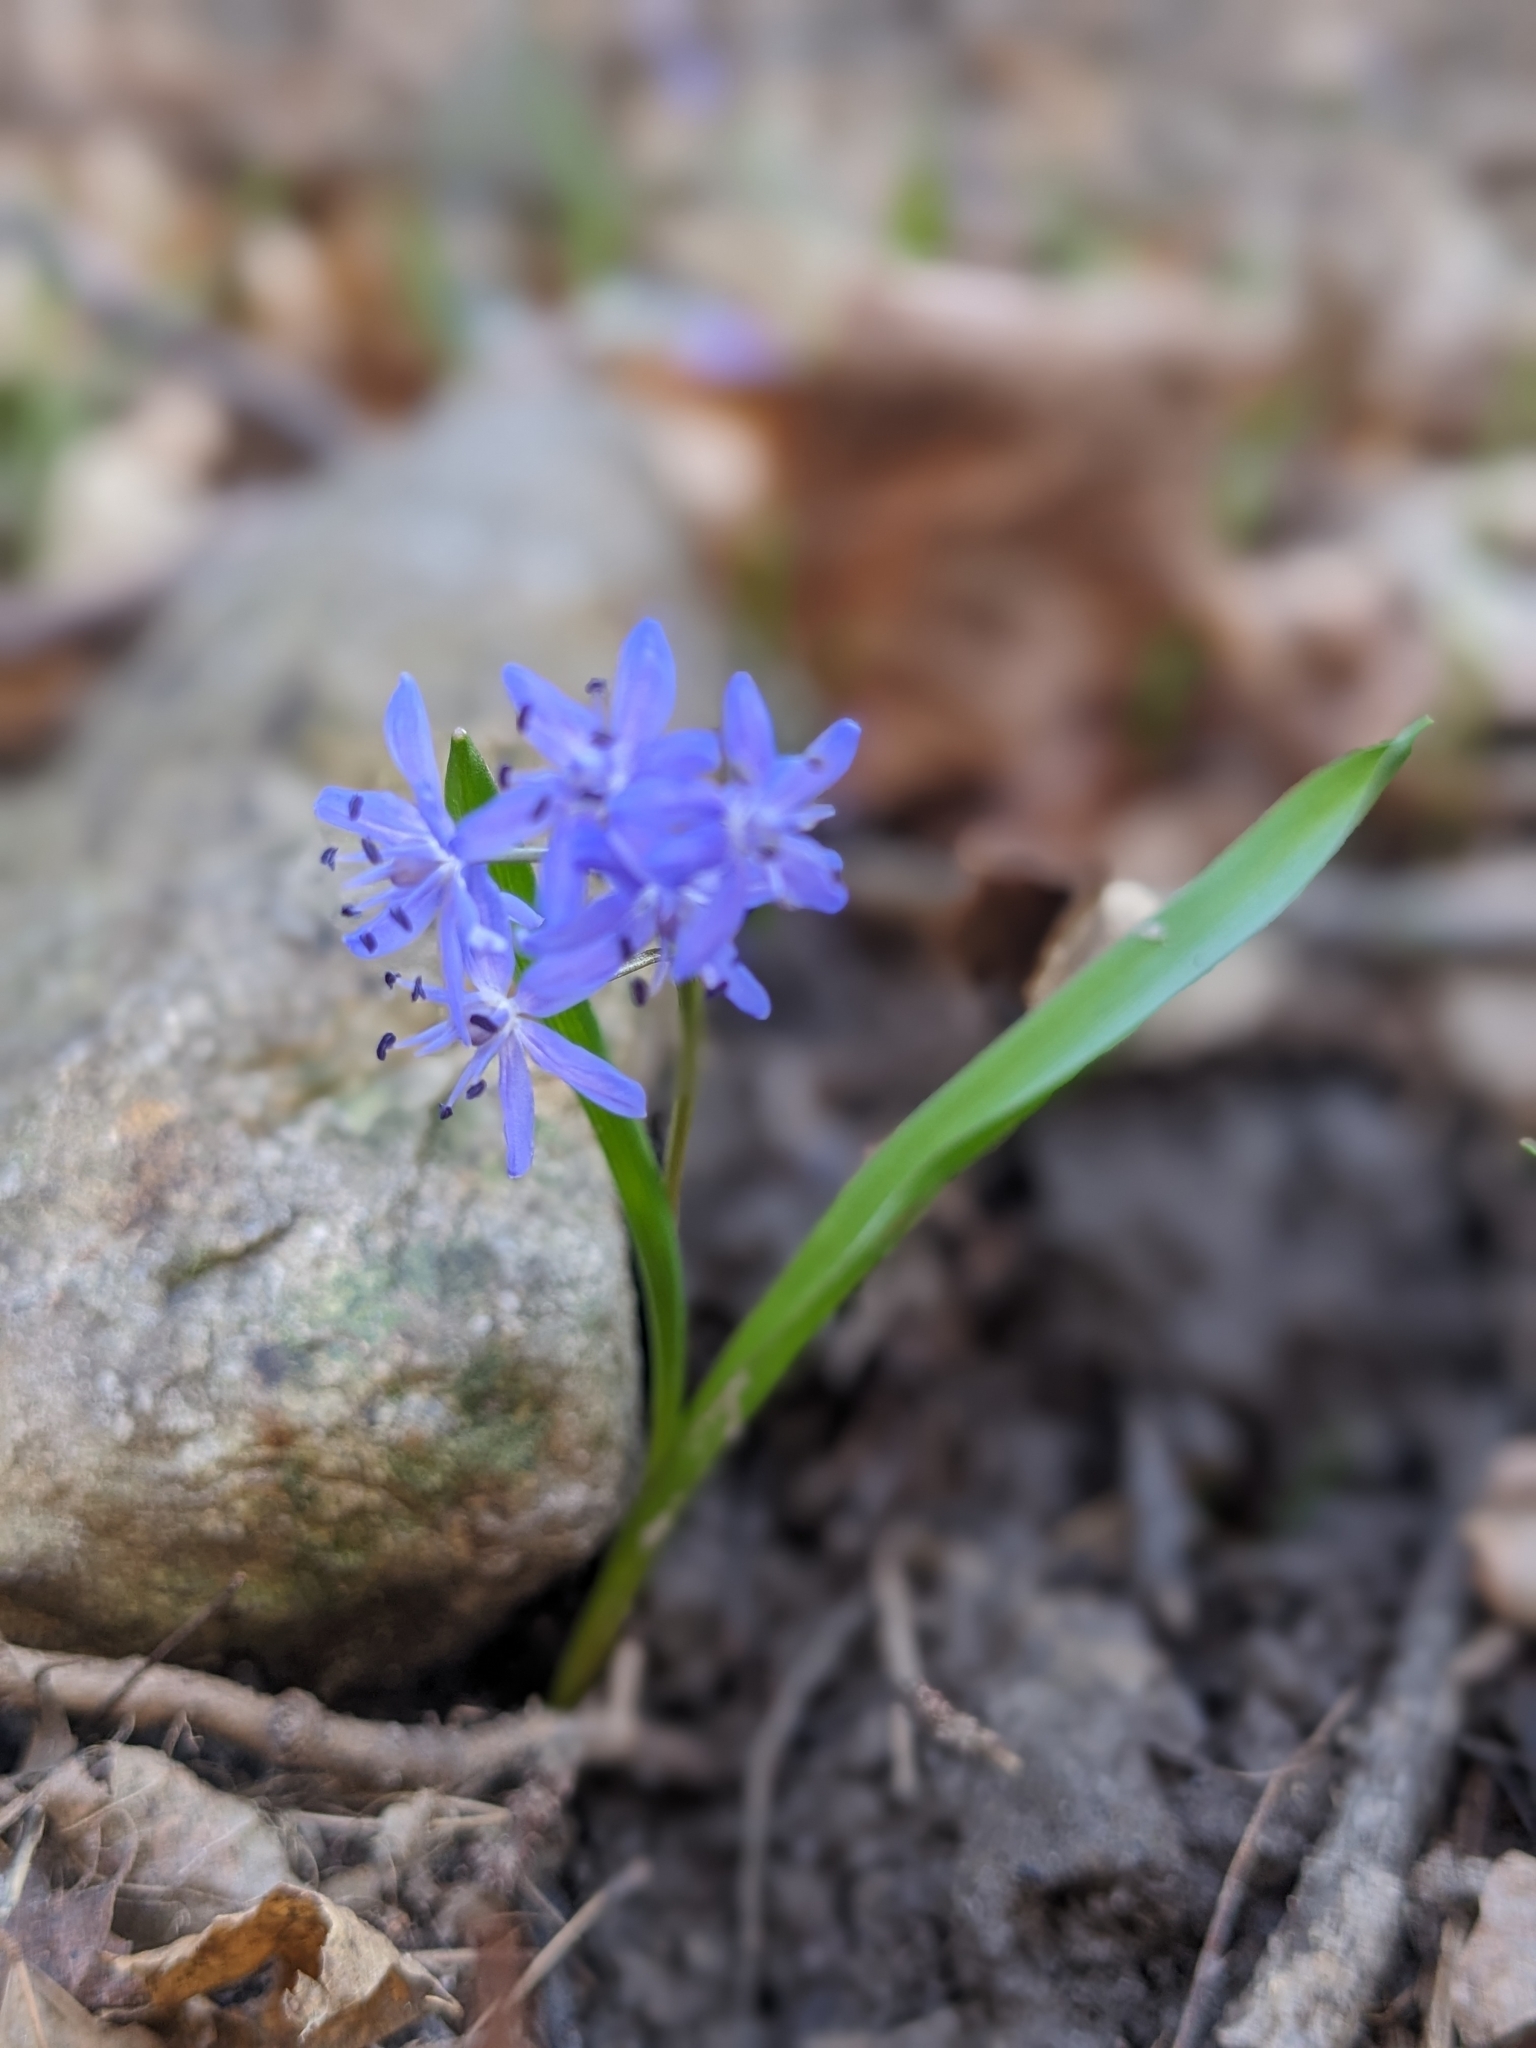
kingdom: Plantae
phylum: Tracheophyta
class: Liliopsida
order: Asparagales
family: Asparagaceae
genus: Scilla
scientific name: Scilla bifolia
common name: Alpine squill
